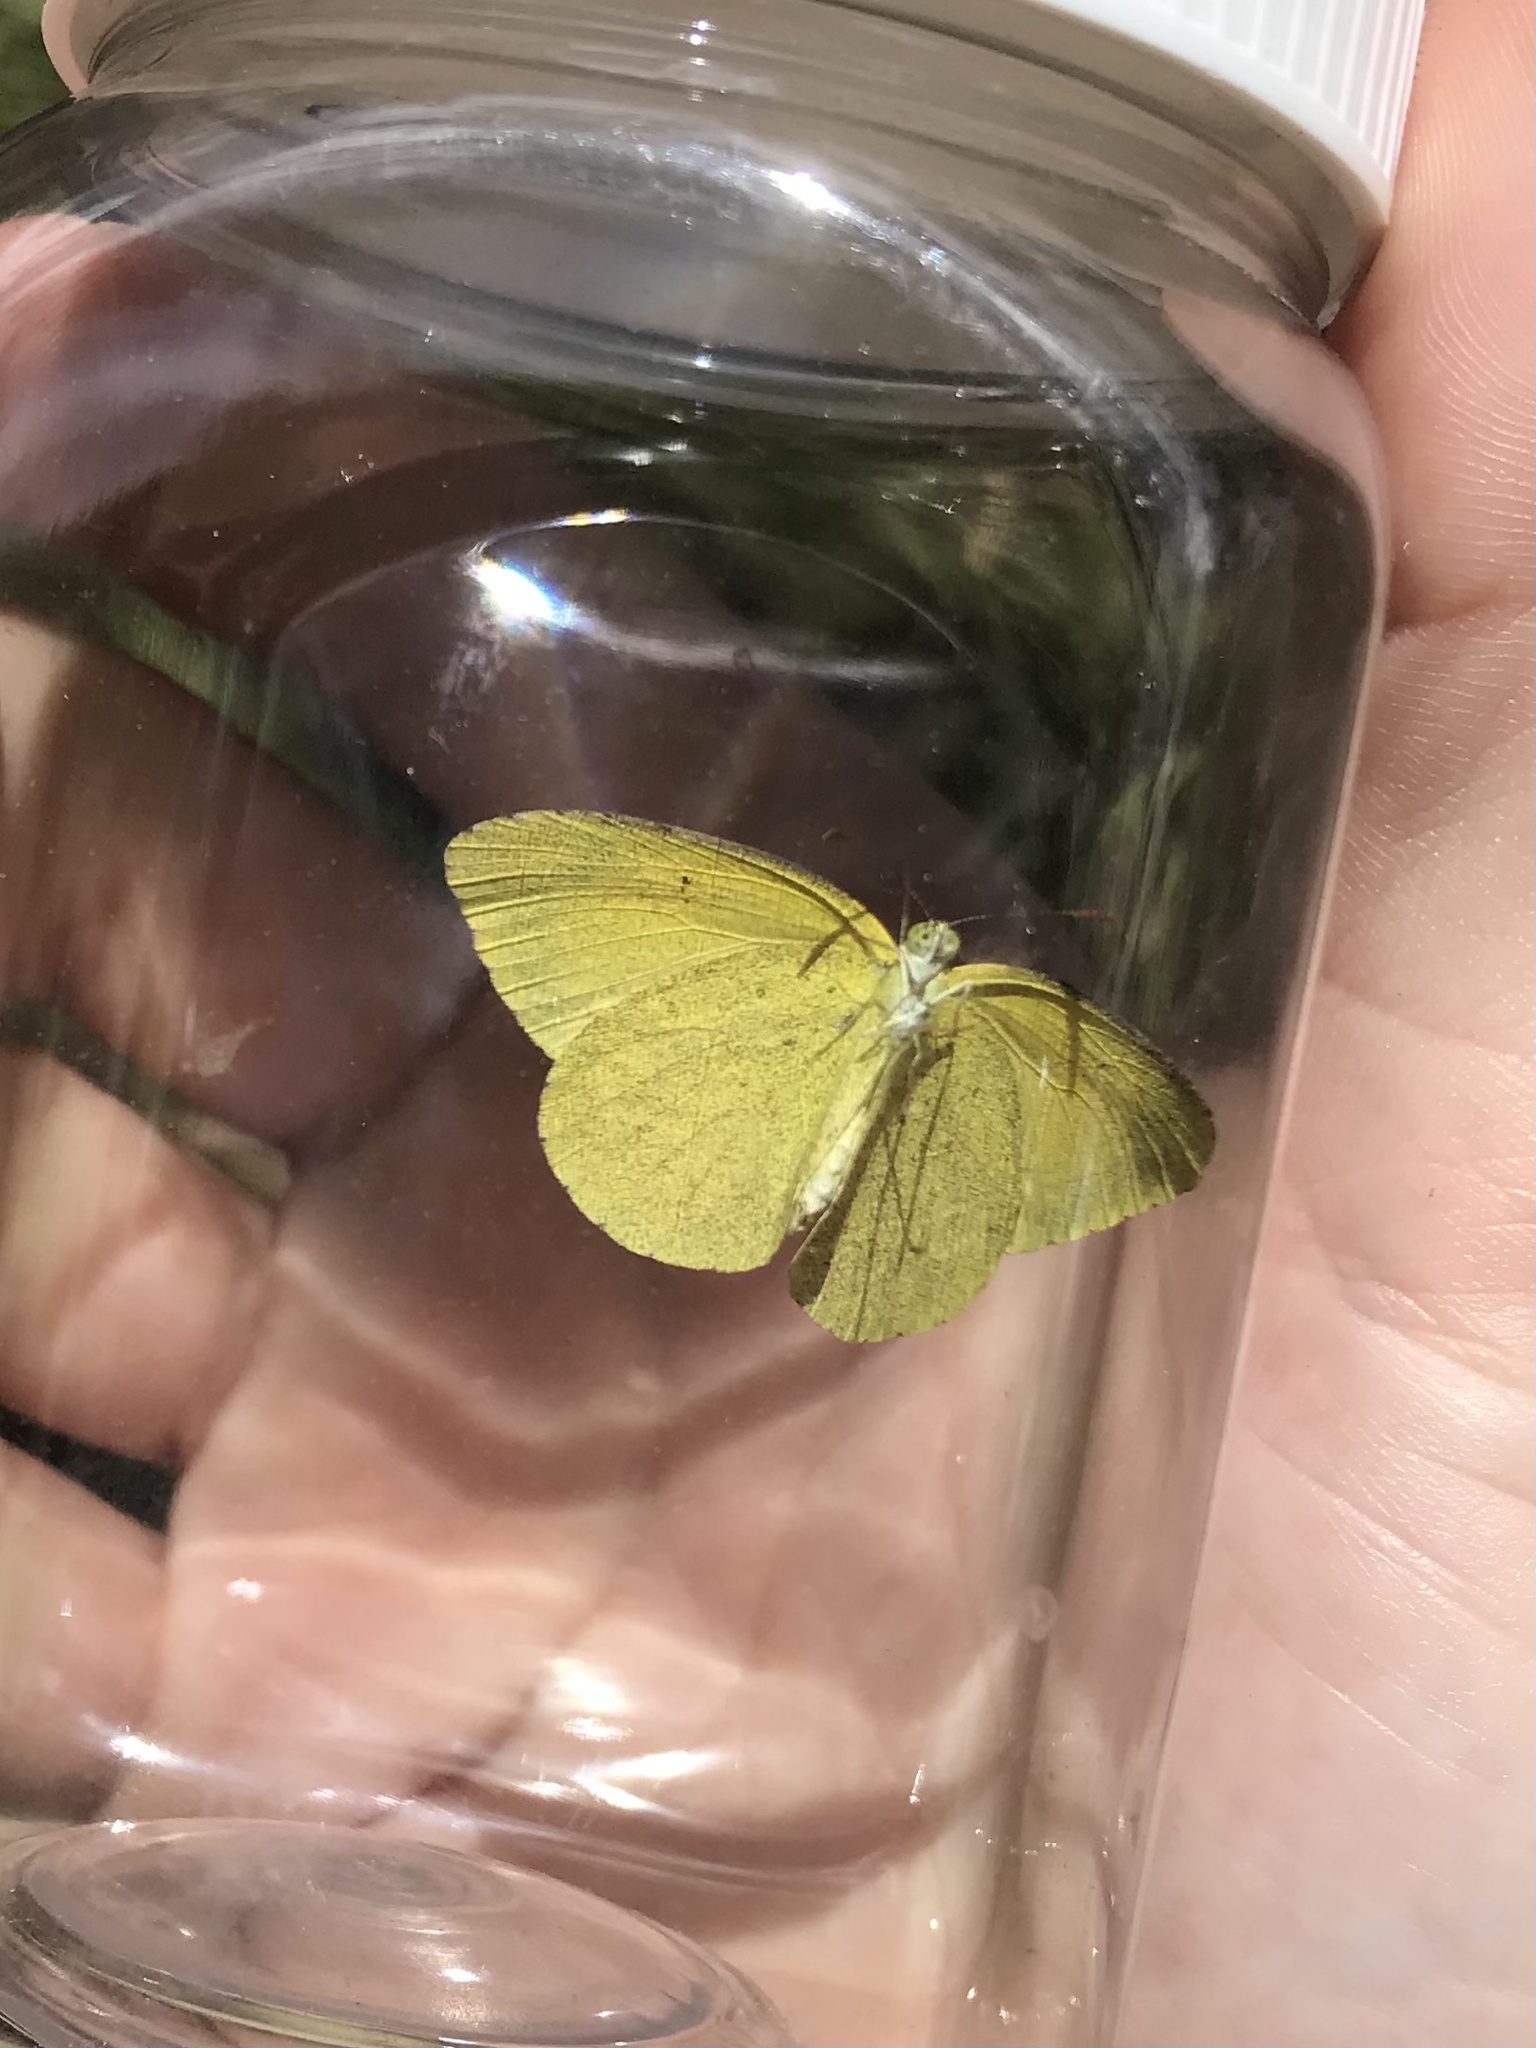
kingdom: Animalia
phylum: Arthropoda
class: Insecta
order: Lepidoptera
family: Pieridae
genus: Eurema
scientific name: Eurema brigitta
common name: Small grass yellow
